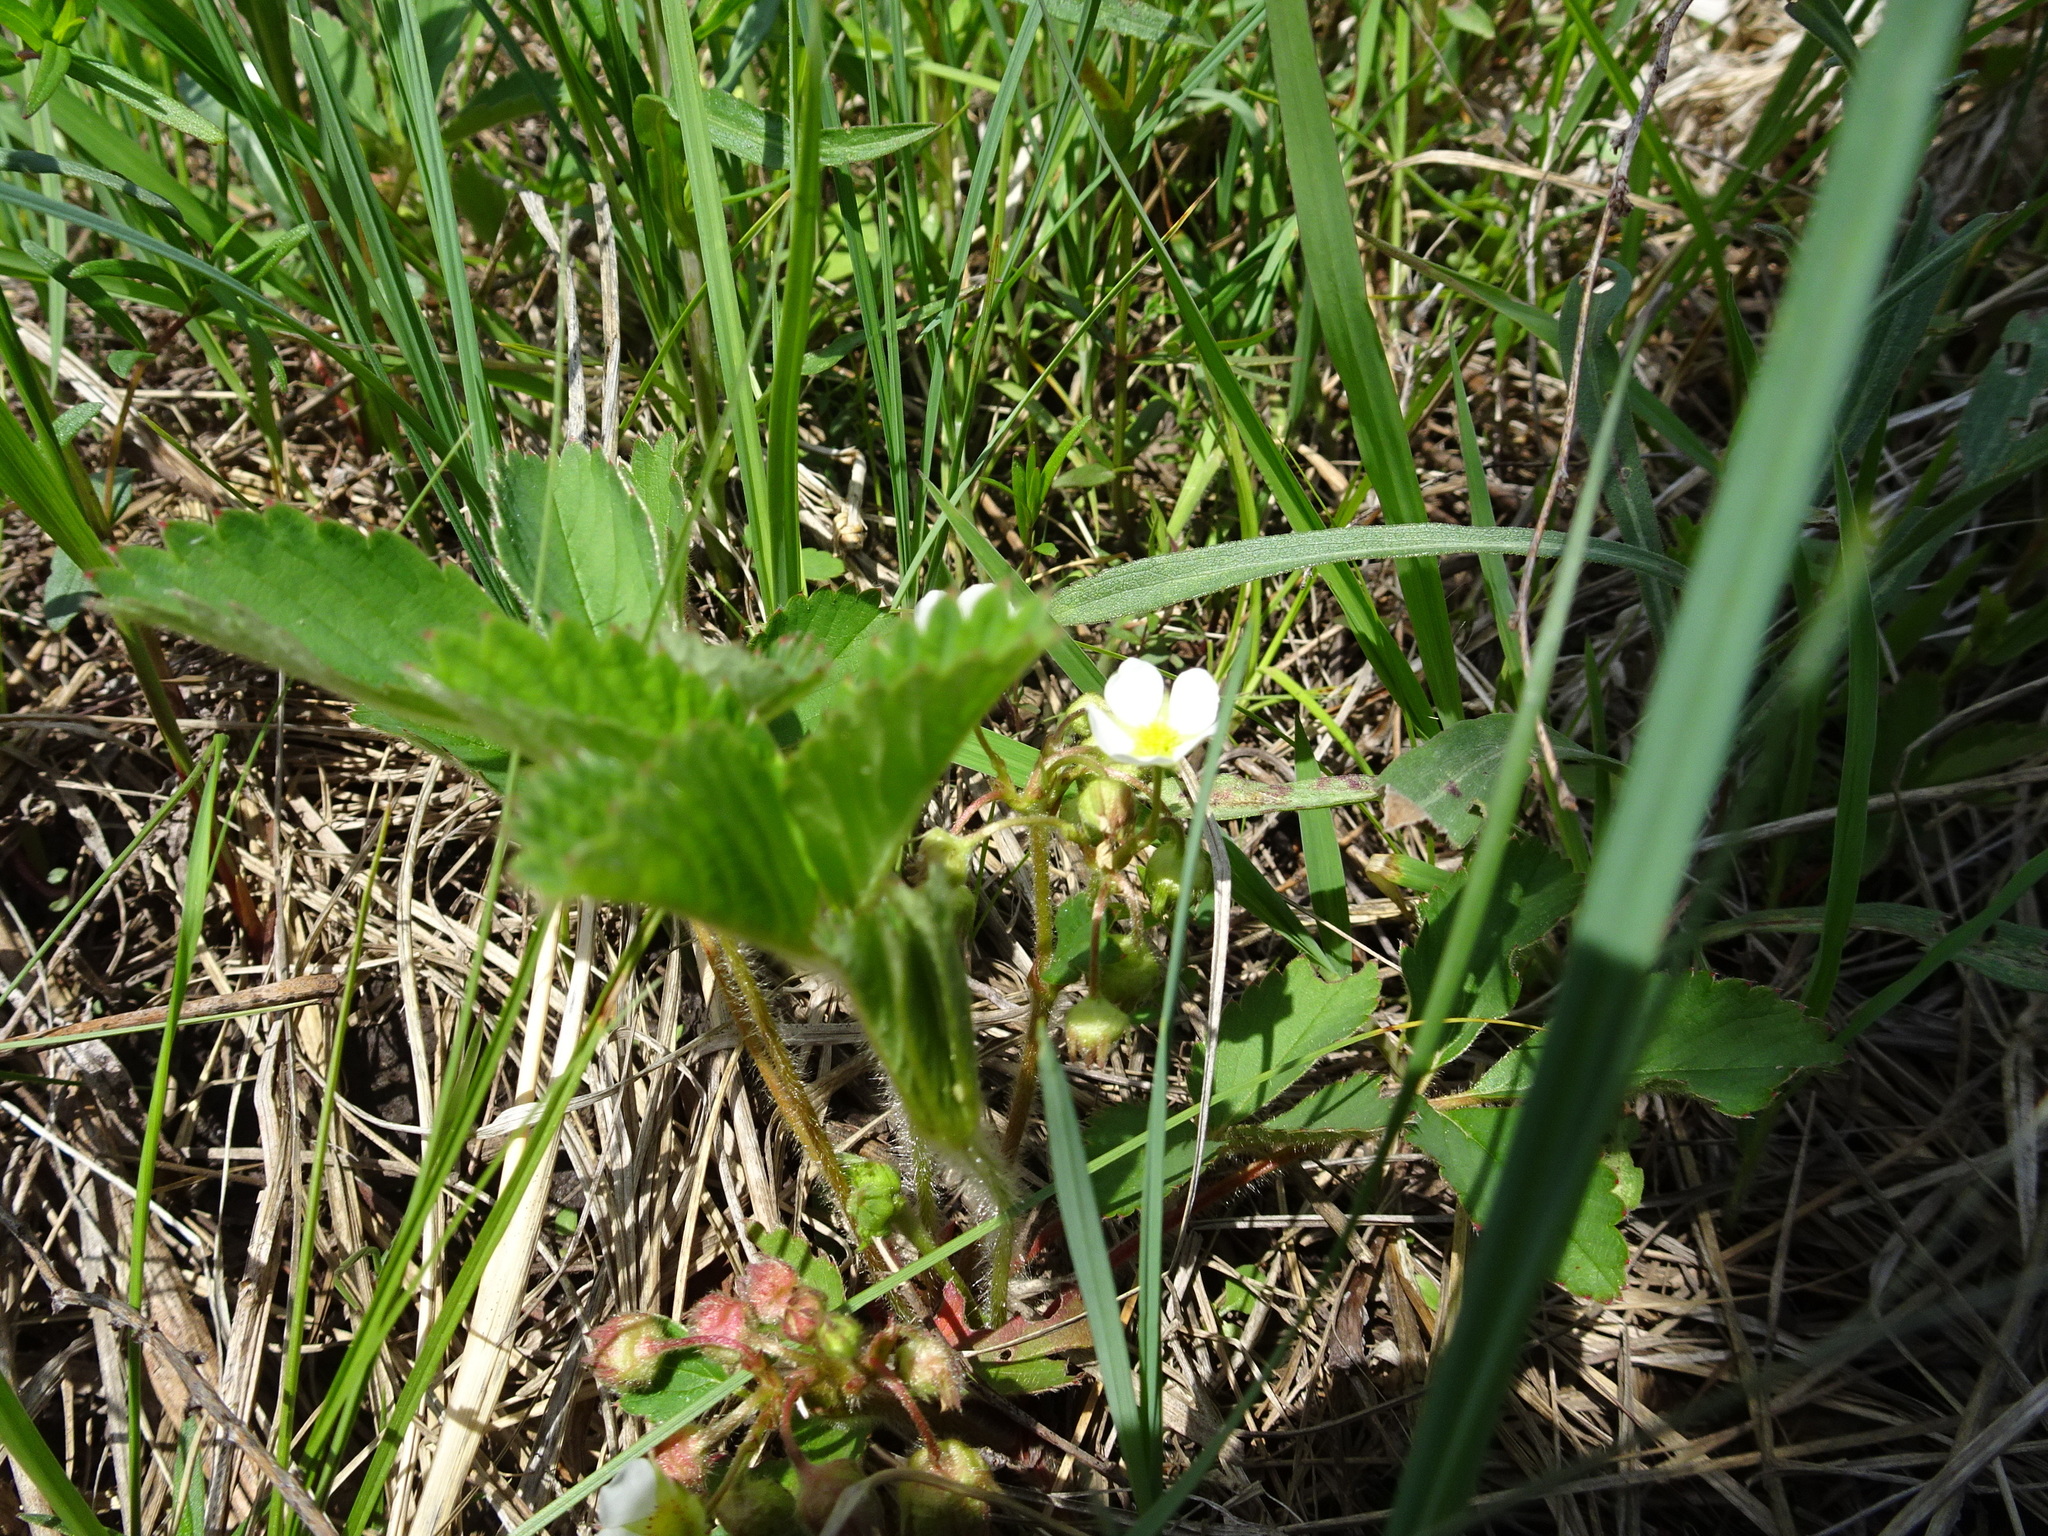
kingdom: Plantae
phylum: Tracheophyta
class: Magnoliopsida
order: Rosales
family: Rosaceae
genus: Fragaria
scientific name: Fragaria virginiana
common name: Thickleaved wild strawberry
